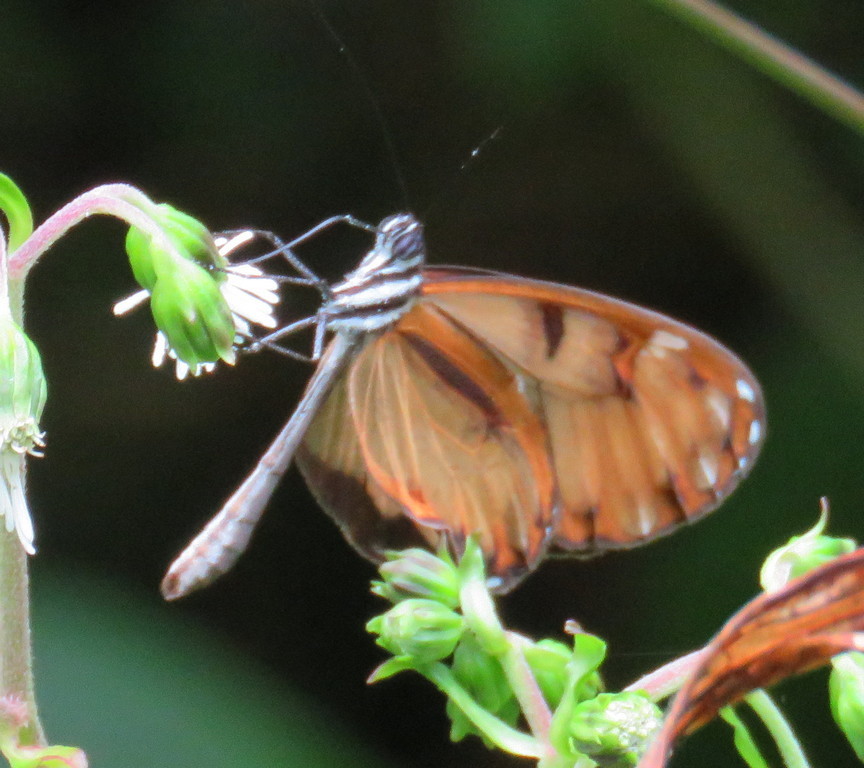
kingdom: Animalia
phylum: Arthropoda
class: Insecta
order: Lepidoptera
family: Nymphalidae
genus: Oleria
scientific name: Oleria baizana
